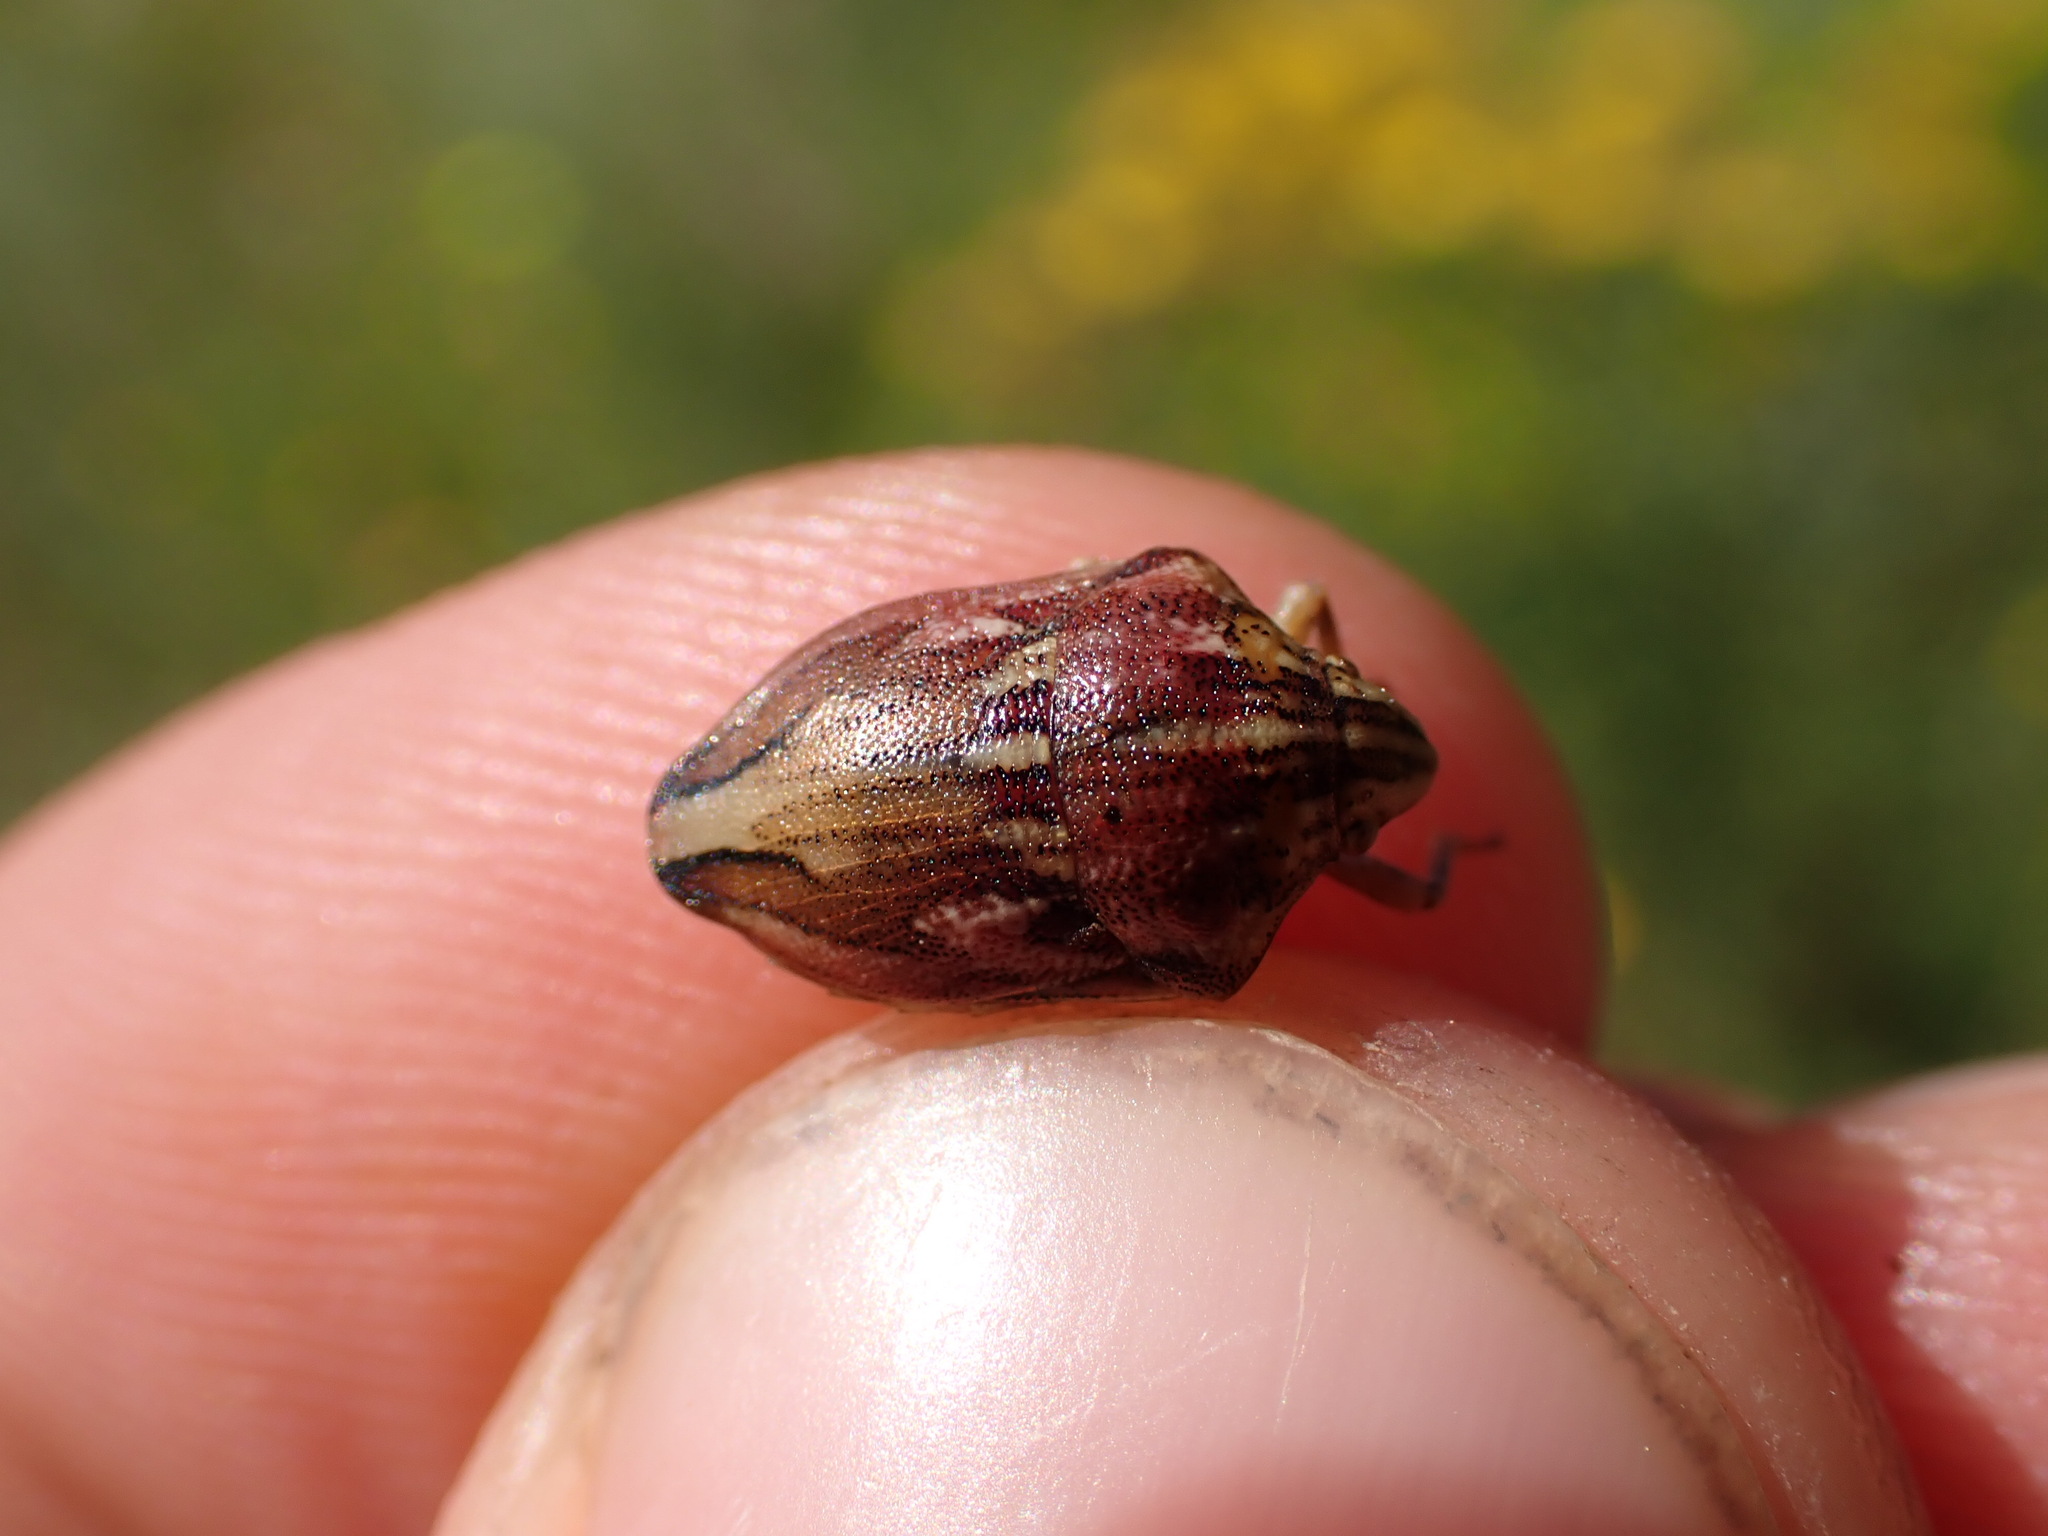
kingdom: Animalia
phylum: Arthropoda
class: Insecta
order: Hemiptera
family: Scutelleridae
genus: Odontotarsus
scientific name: Odontotarsus purpureolineatus
